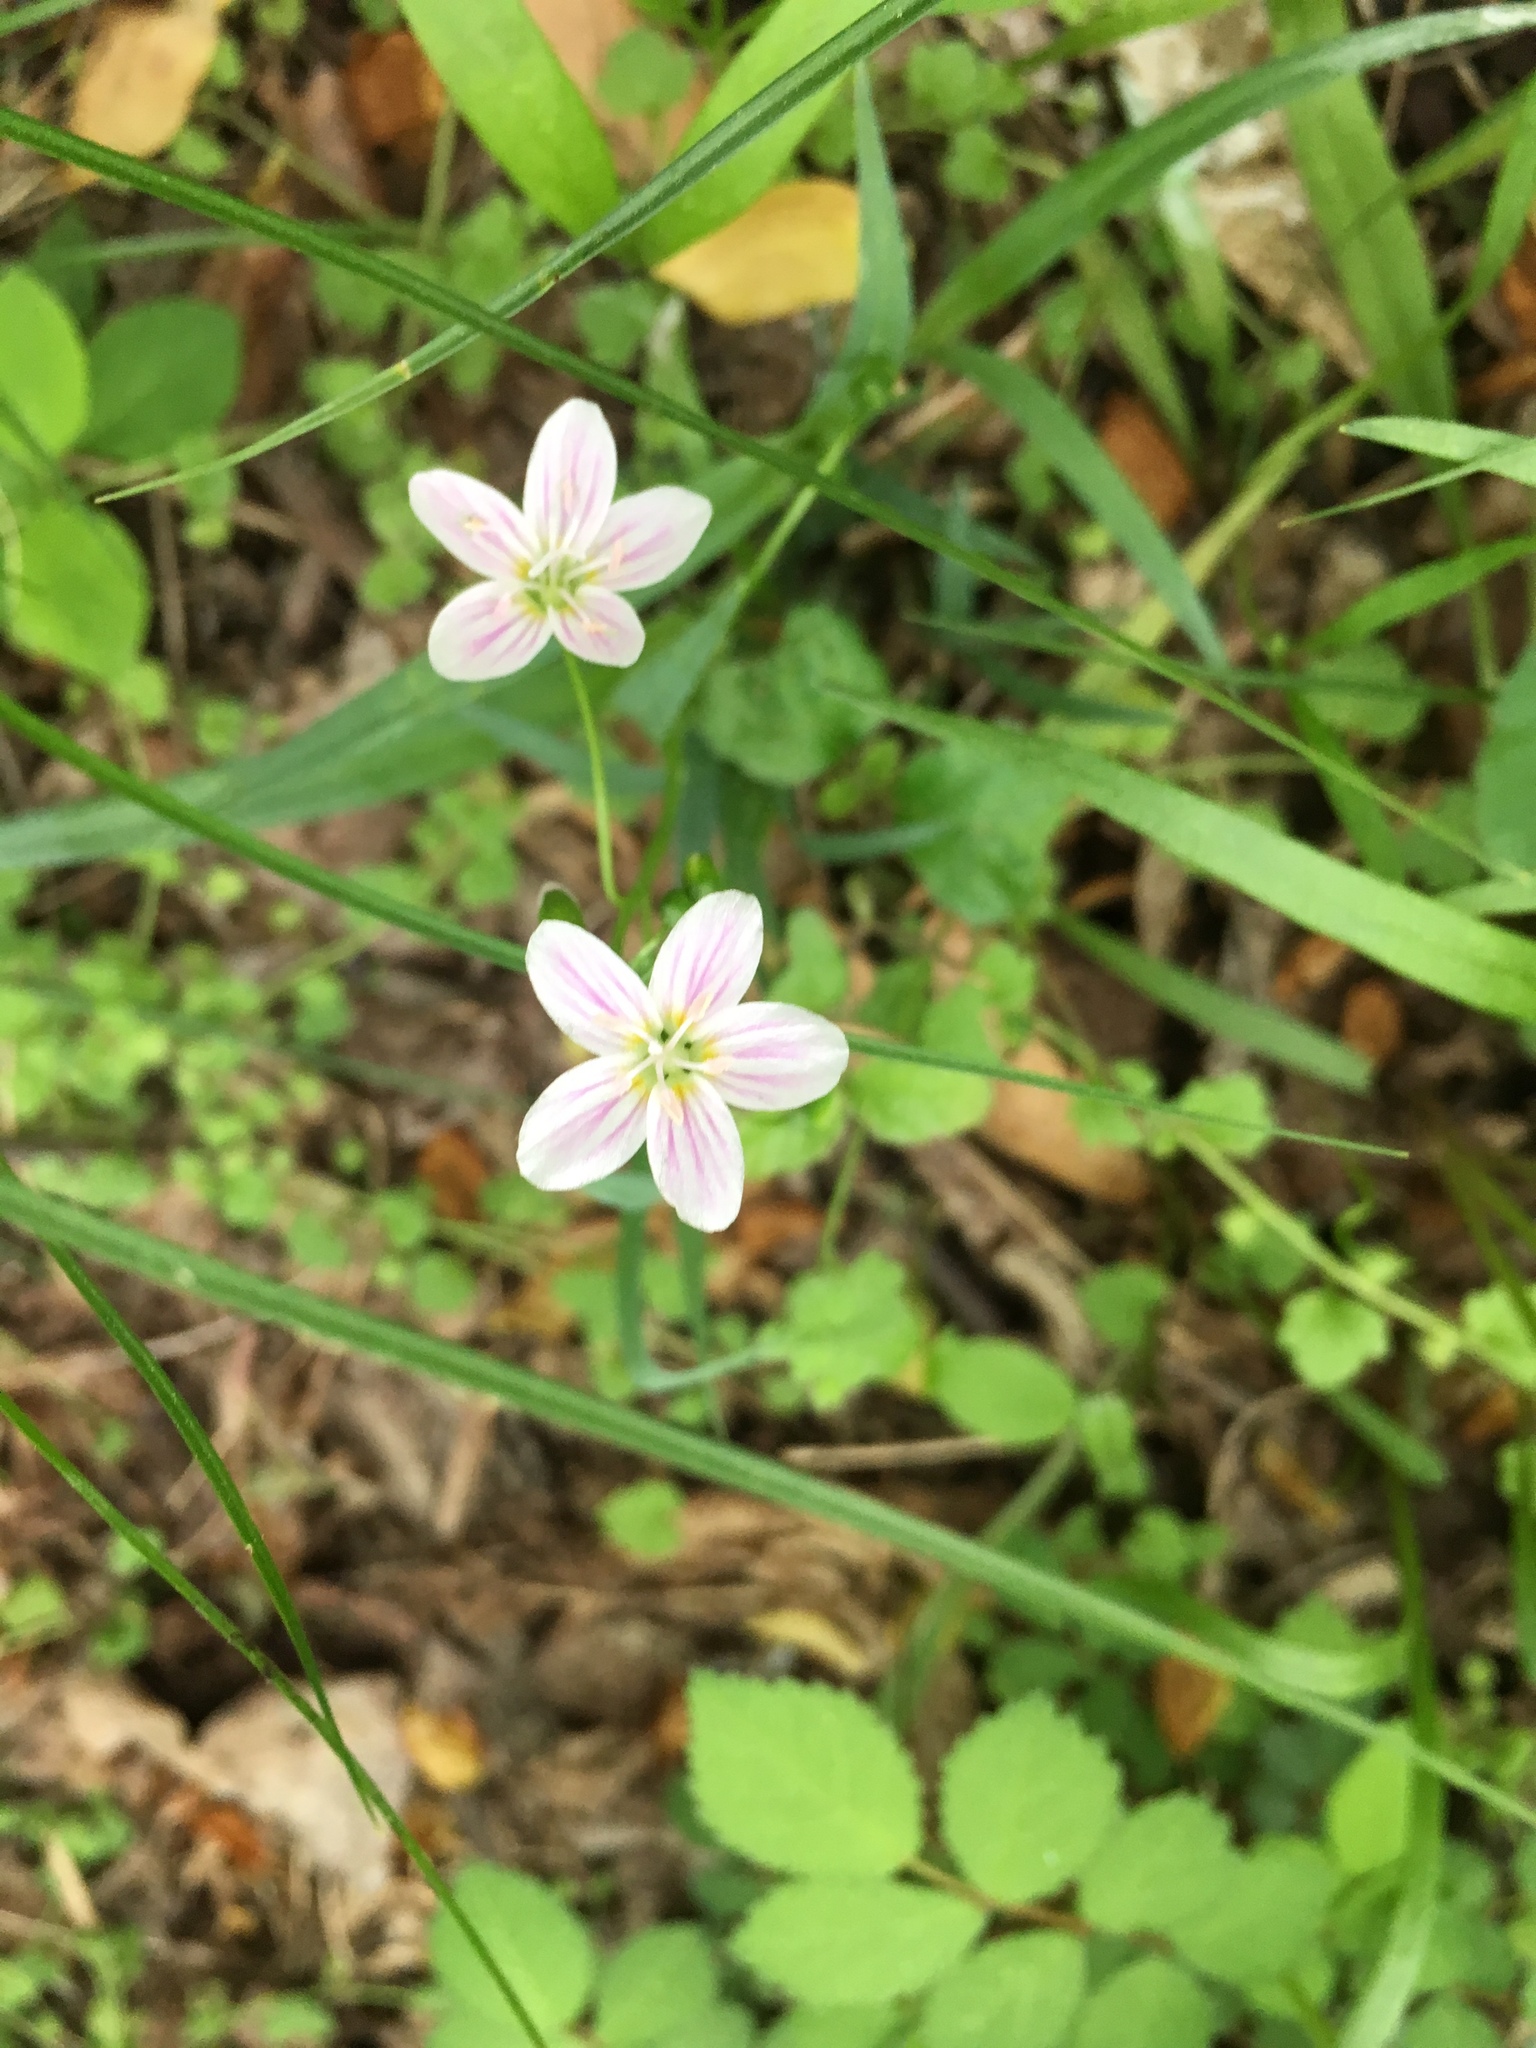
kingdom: Plantae
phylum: Tracheophyta
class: Magnoliopsida
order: Caryophyllales
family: Montiaceae
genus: Claytonia
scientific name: Claytonia virginica
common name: Virginia springbeauty
